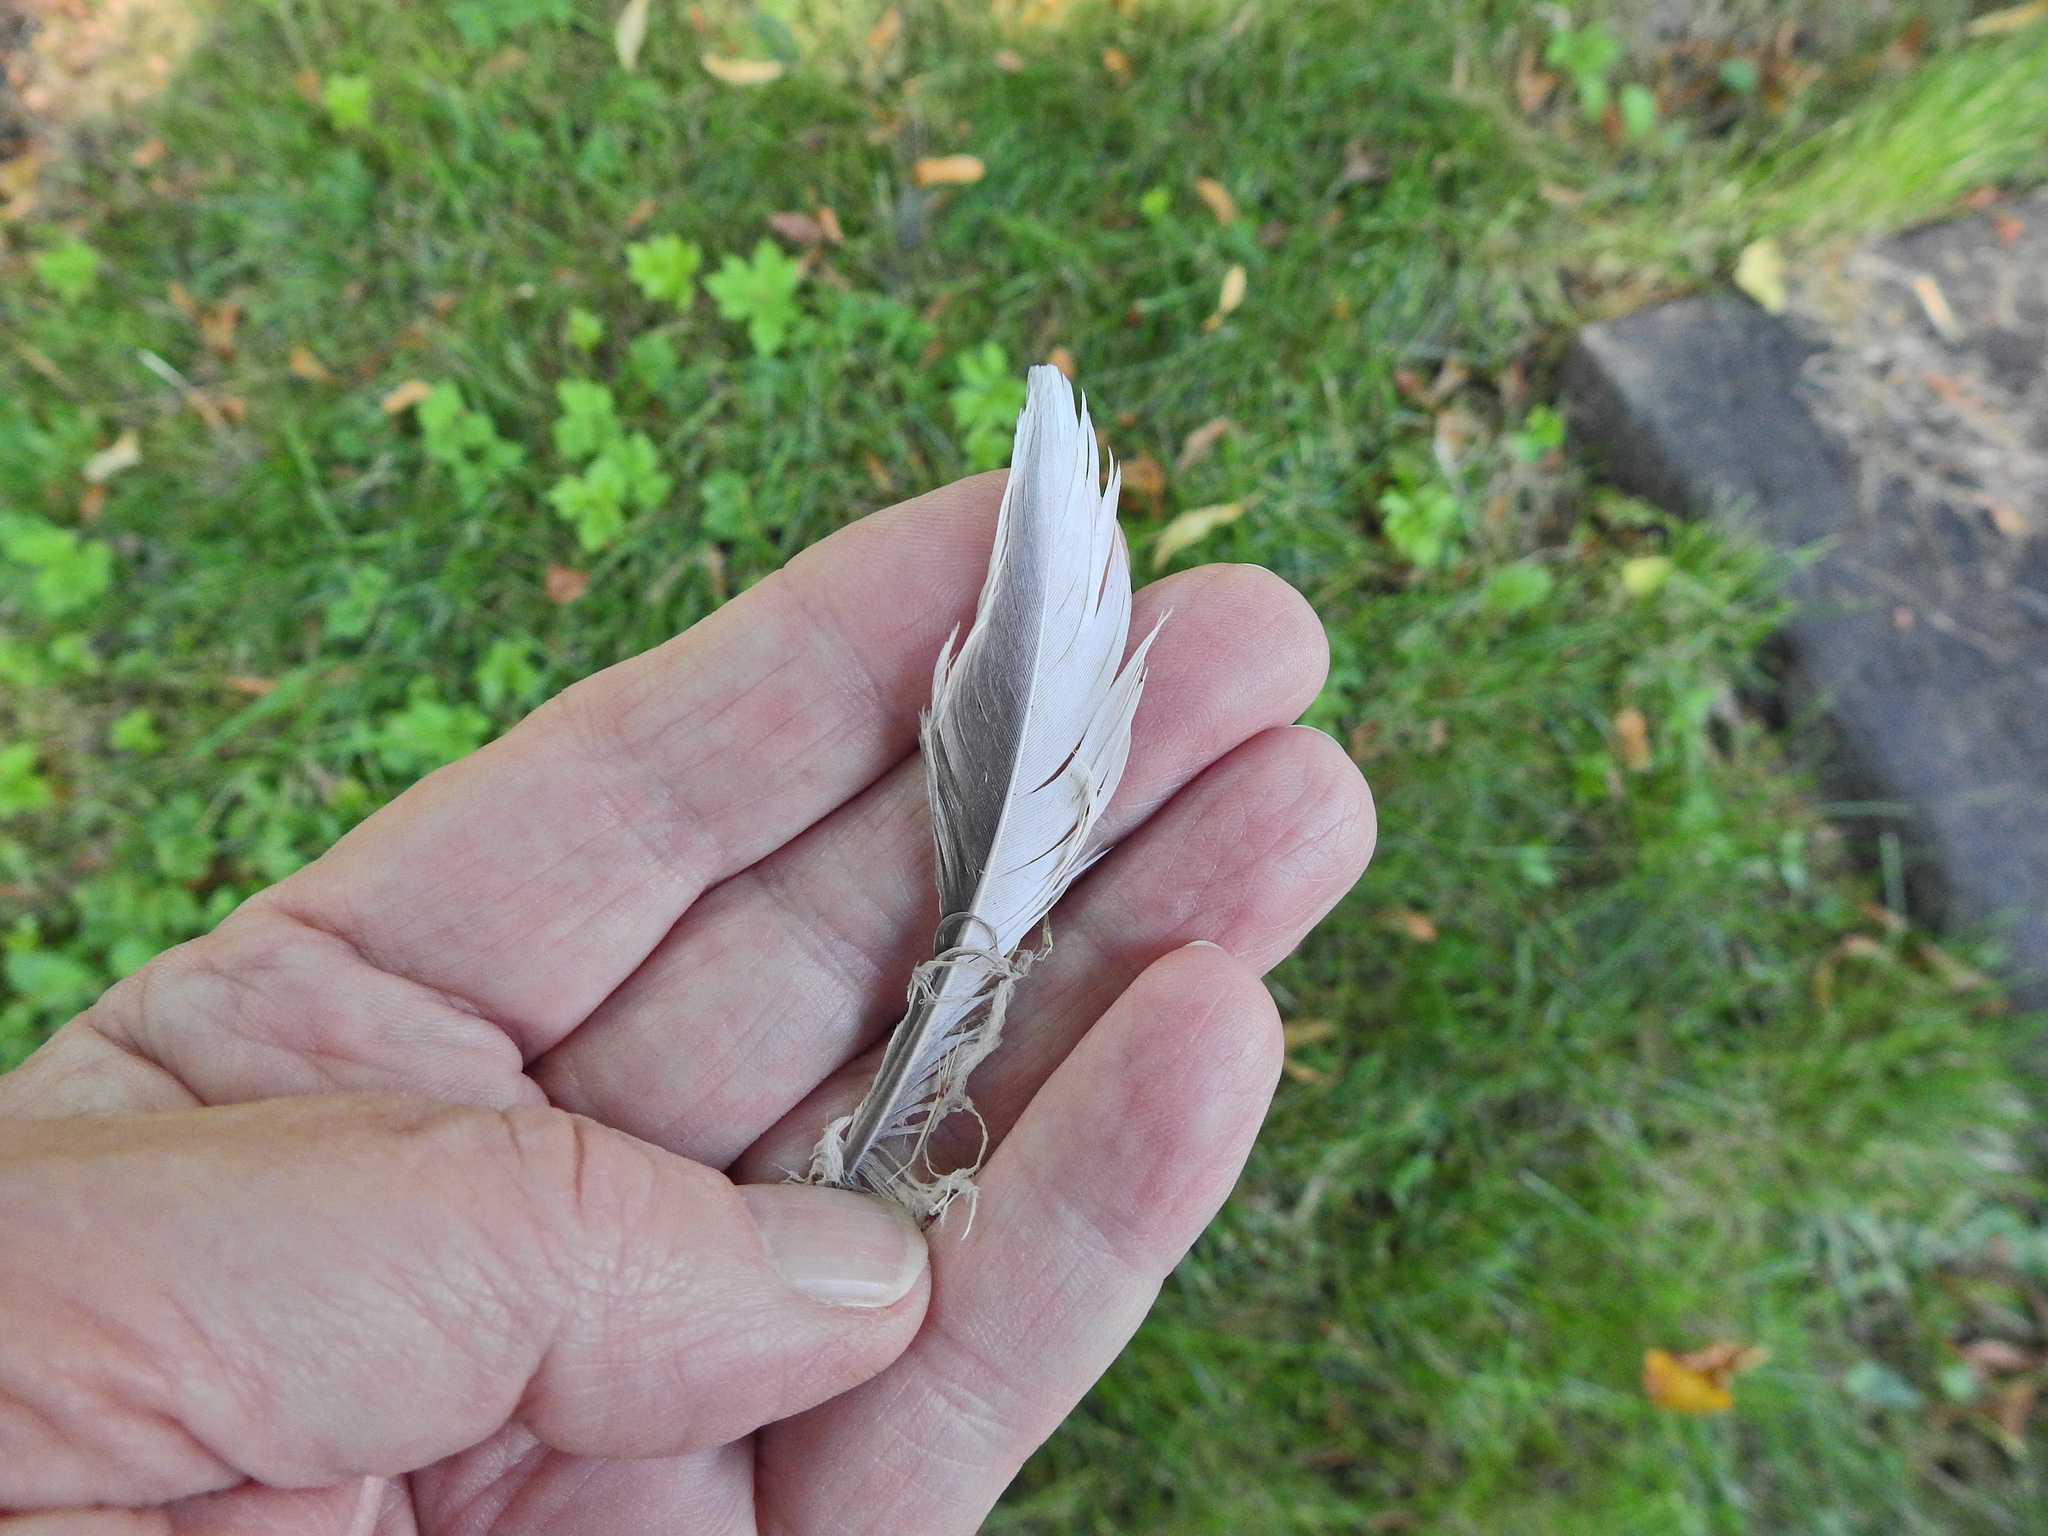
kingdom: Animalia
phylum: Chordata
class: Aves
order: Columbiformes
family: Columbidae
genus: Columba
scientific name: Columba palumbus
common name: Common wood pigeon
